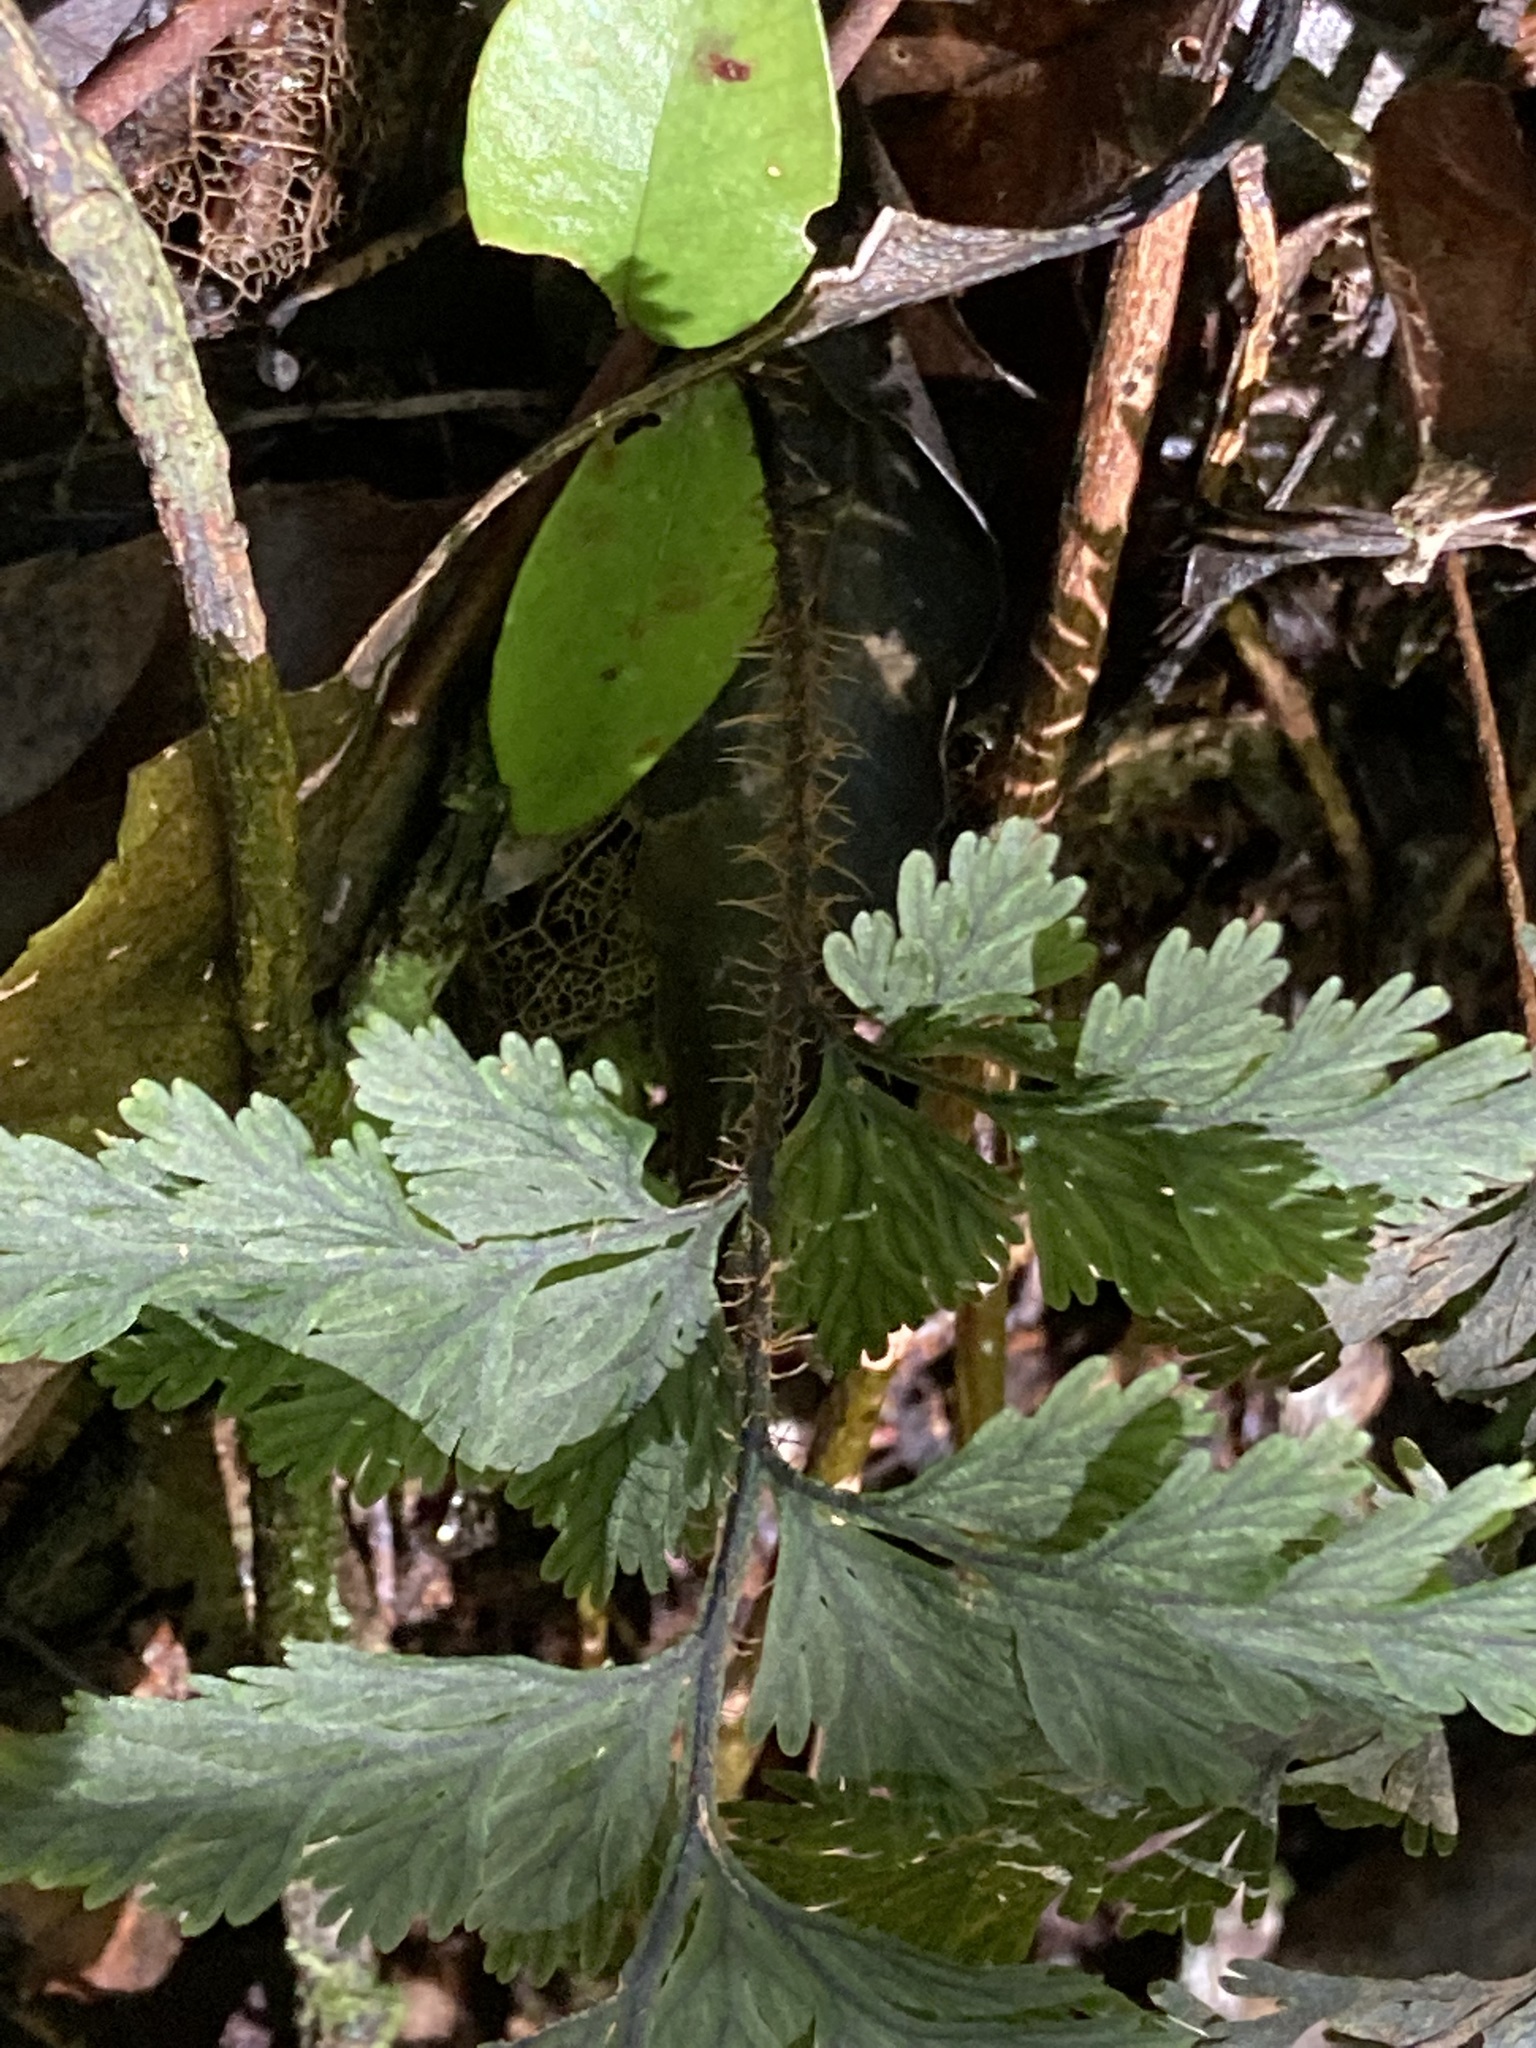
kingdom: Plantae
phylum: Tracheophyta
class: Polypodiopsida
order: Hymenophyllales
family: Hymenophyllaceae
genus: Hymenophyllum
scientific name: Hymenophyllum scabrum
